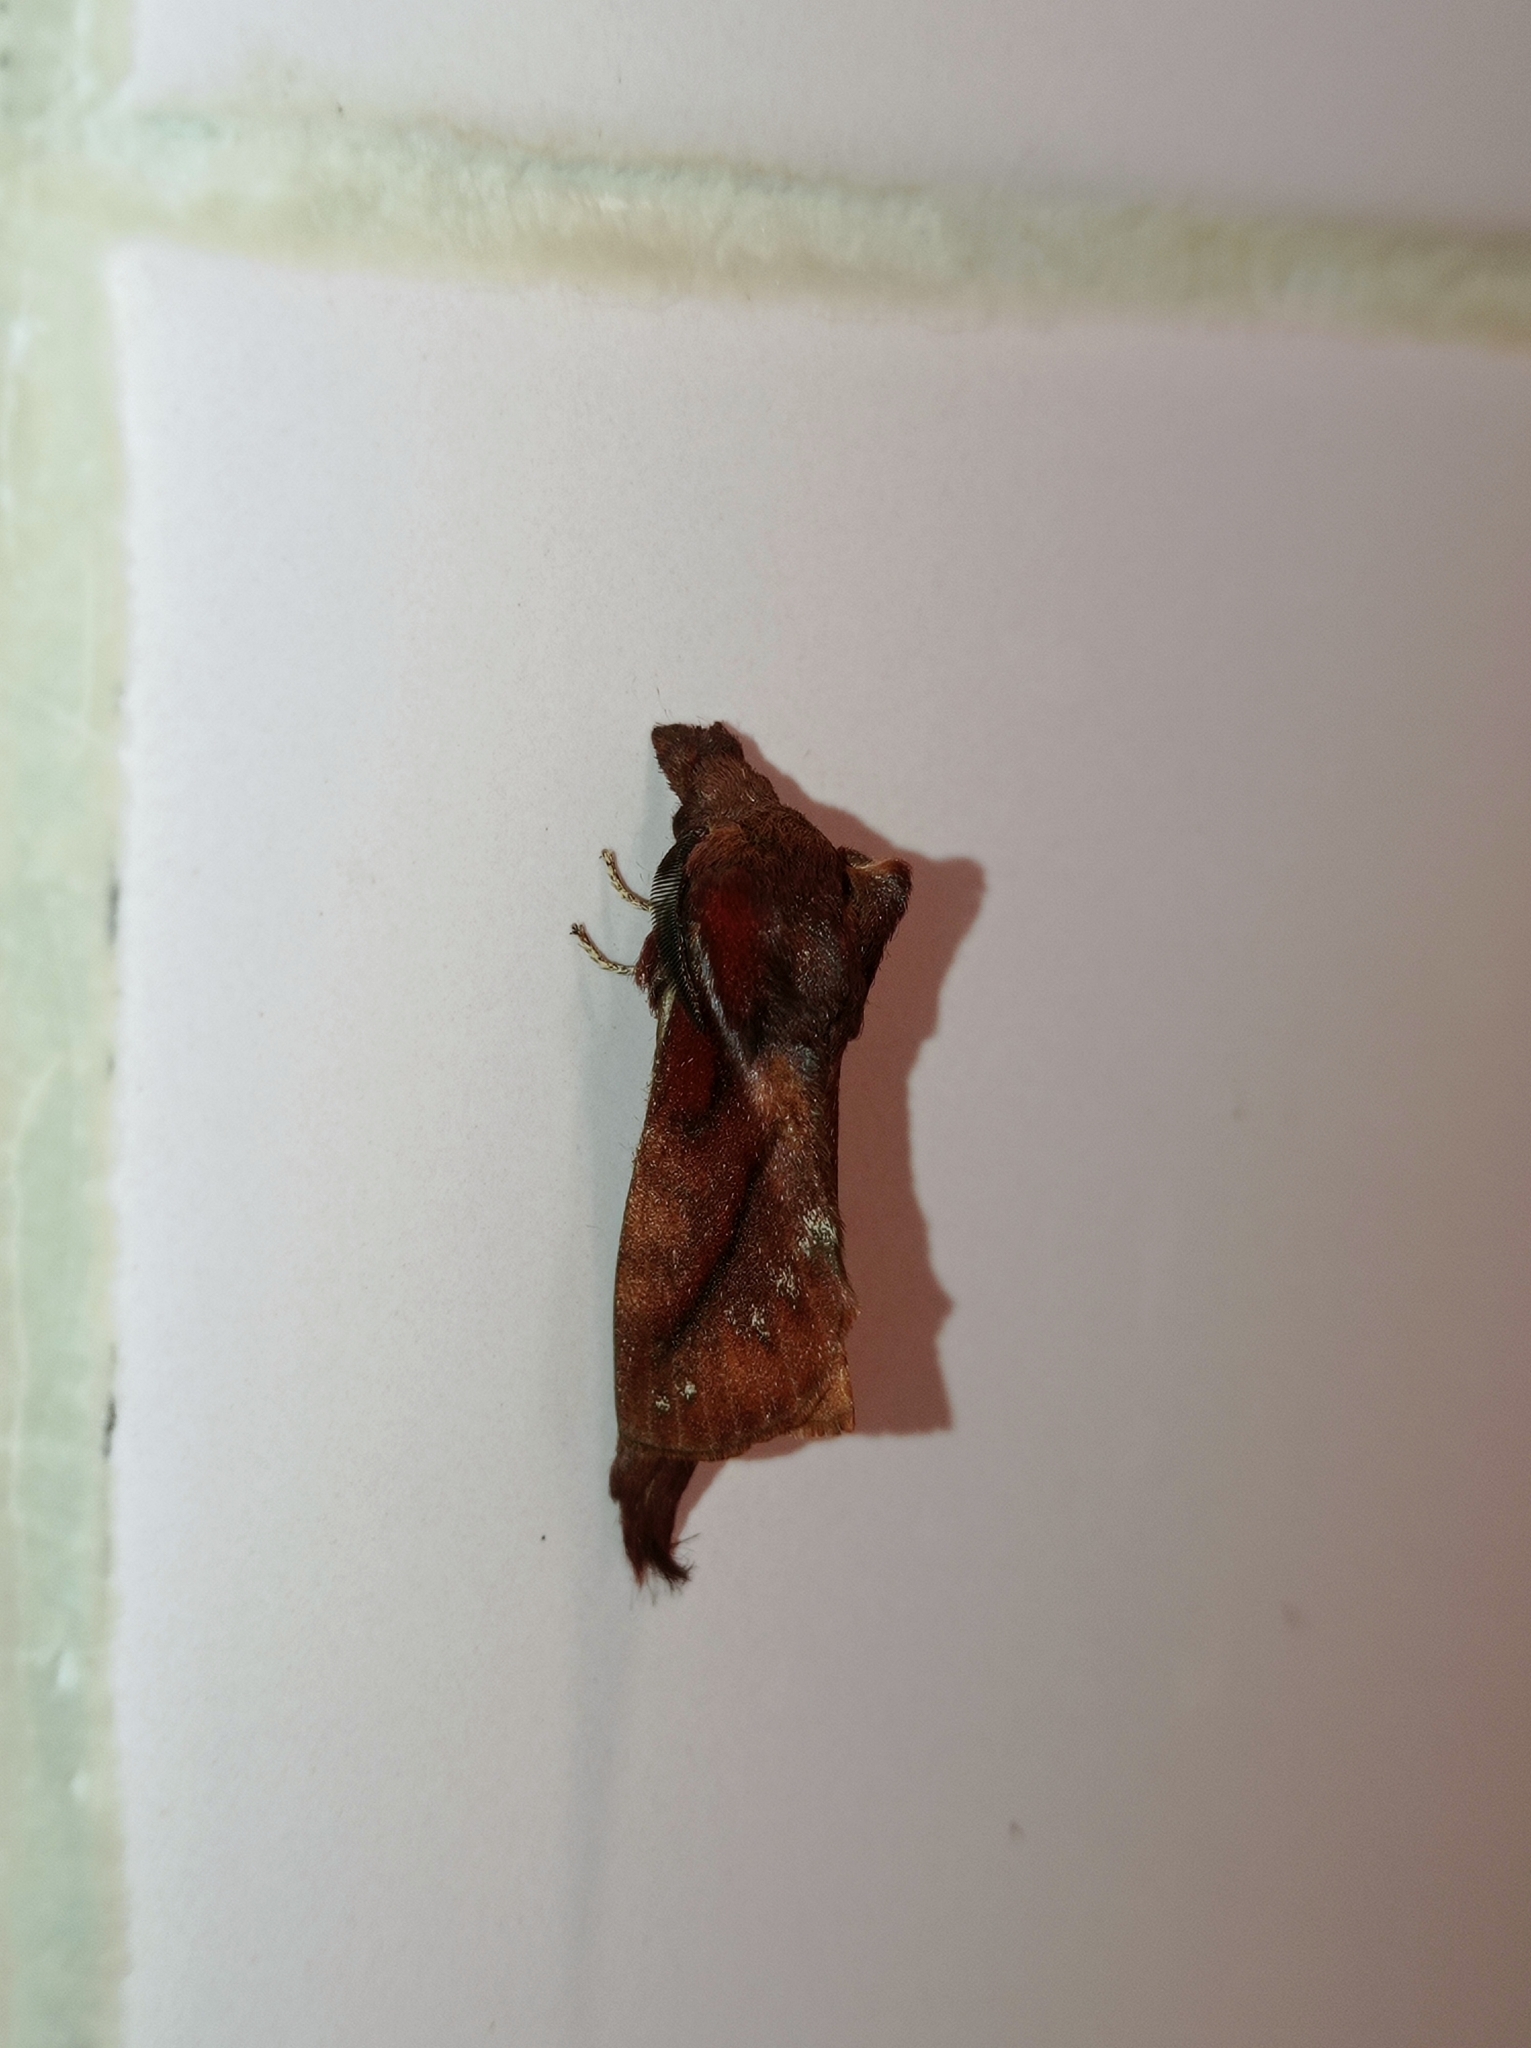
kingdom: Animalia
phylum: Arthropoda
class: Insecta
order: Lepidoptera
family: Lasiocampidae
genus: Kunugia
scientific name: Kunugia divaricata
